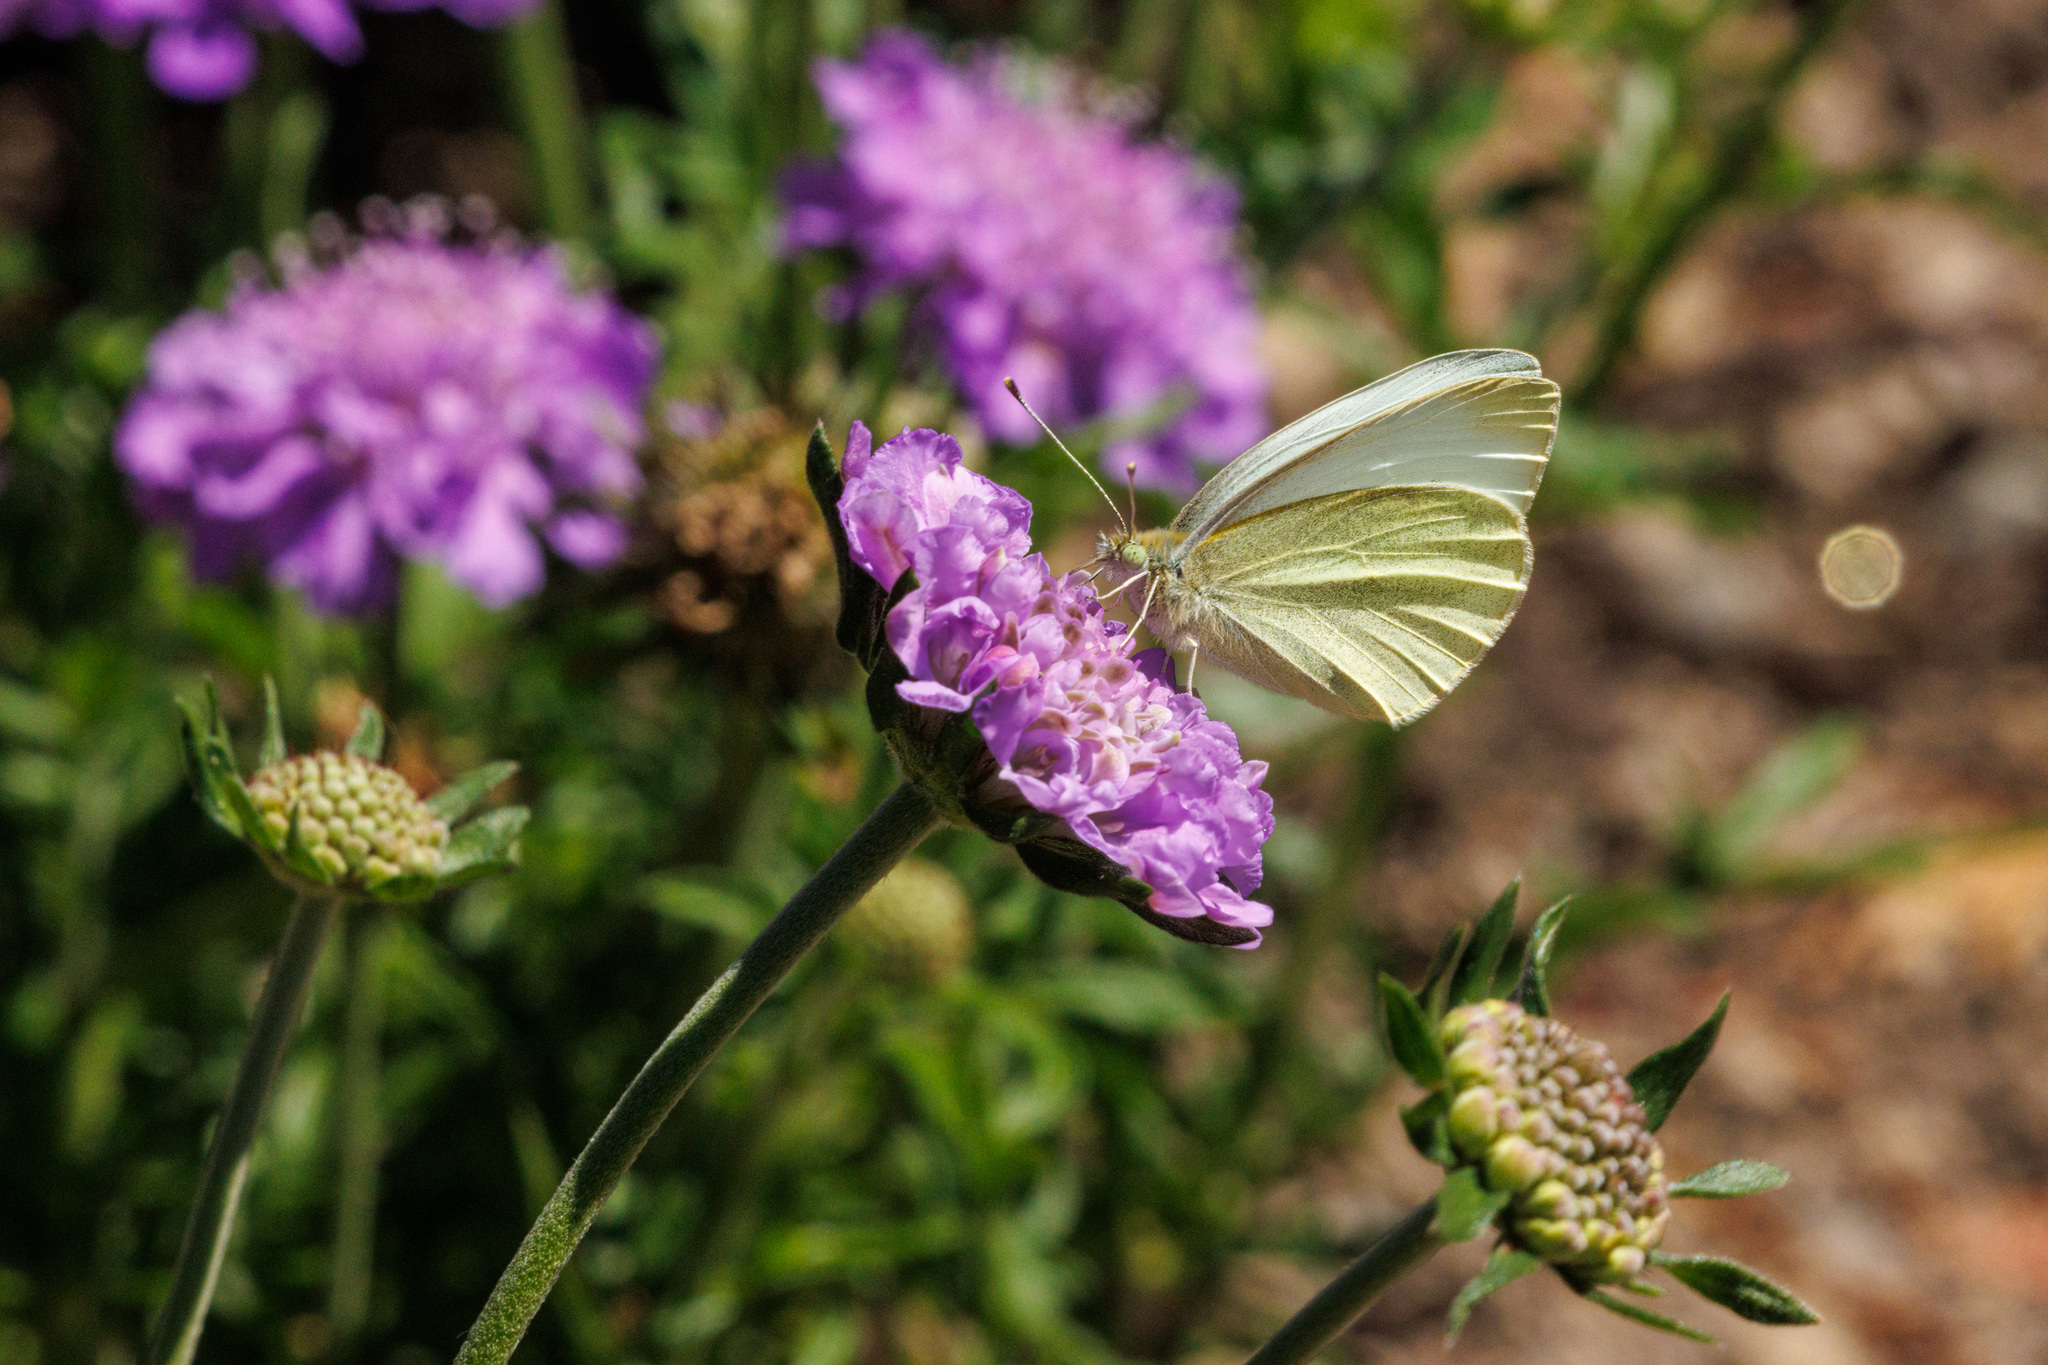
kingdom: Animalia
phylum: Arthropoda
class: Insecta
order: Lepidoptera
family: Pieridae
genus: Pieris
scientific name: Pieris rapae
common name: Small white
